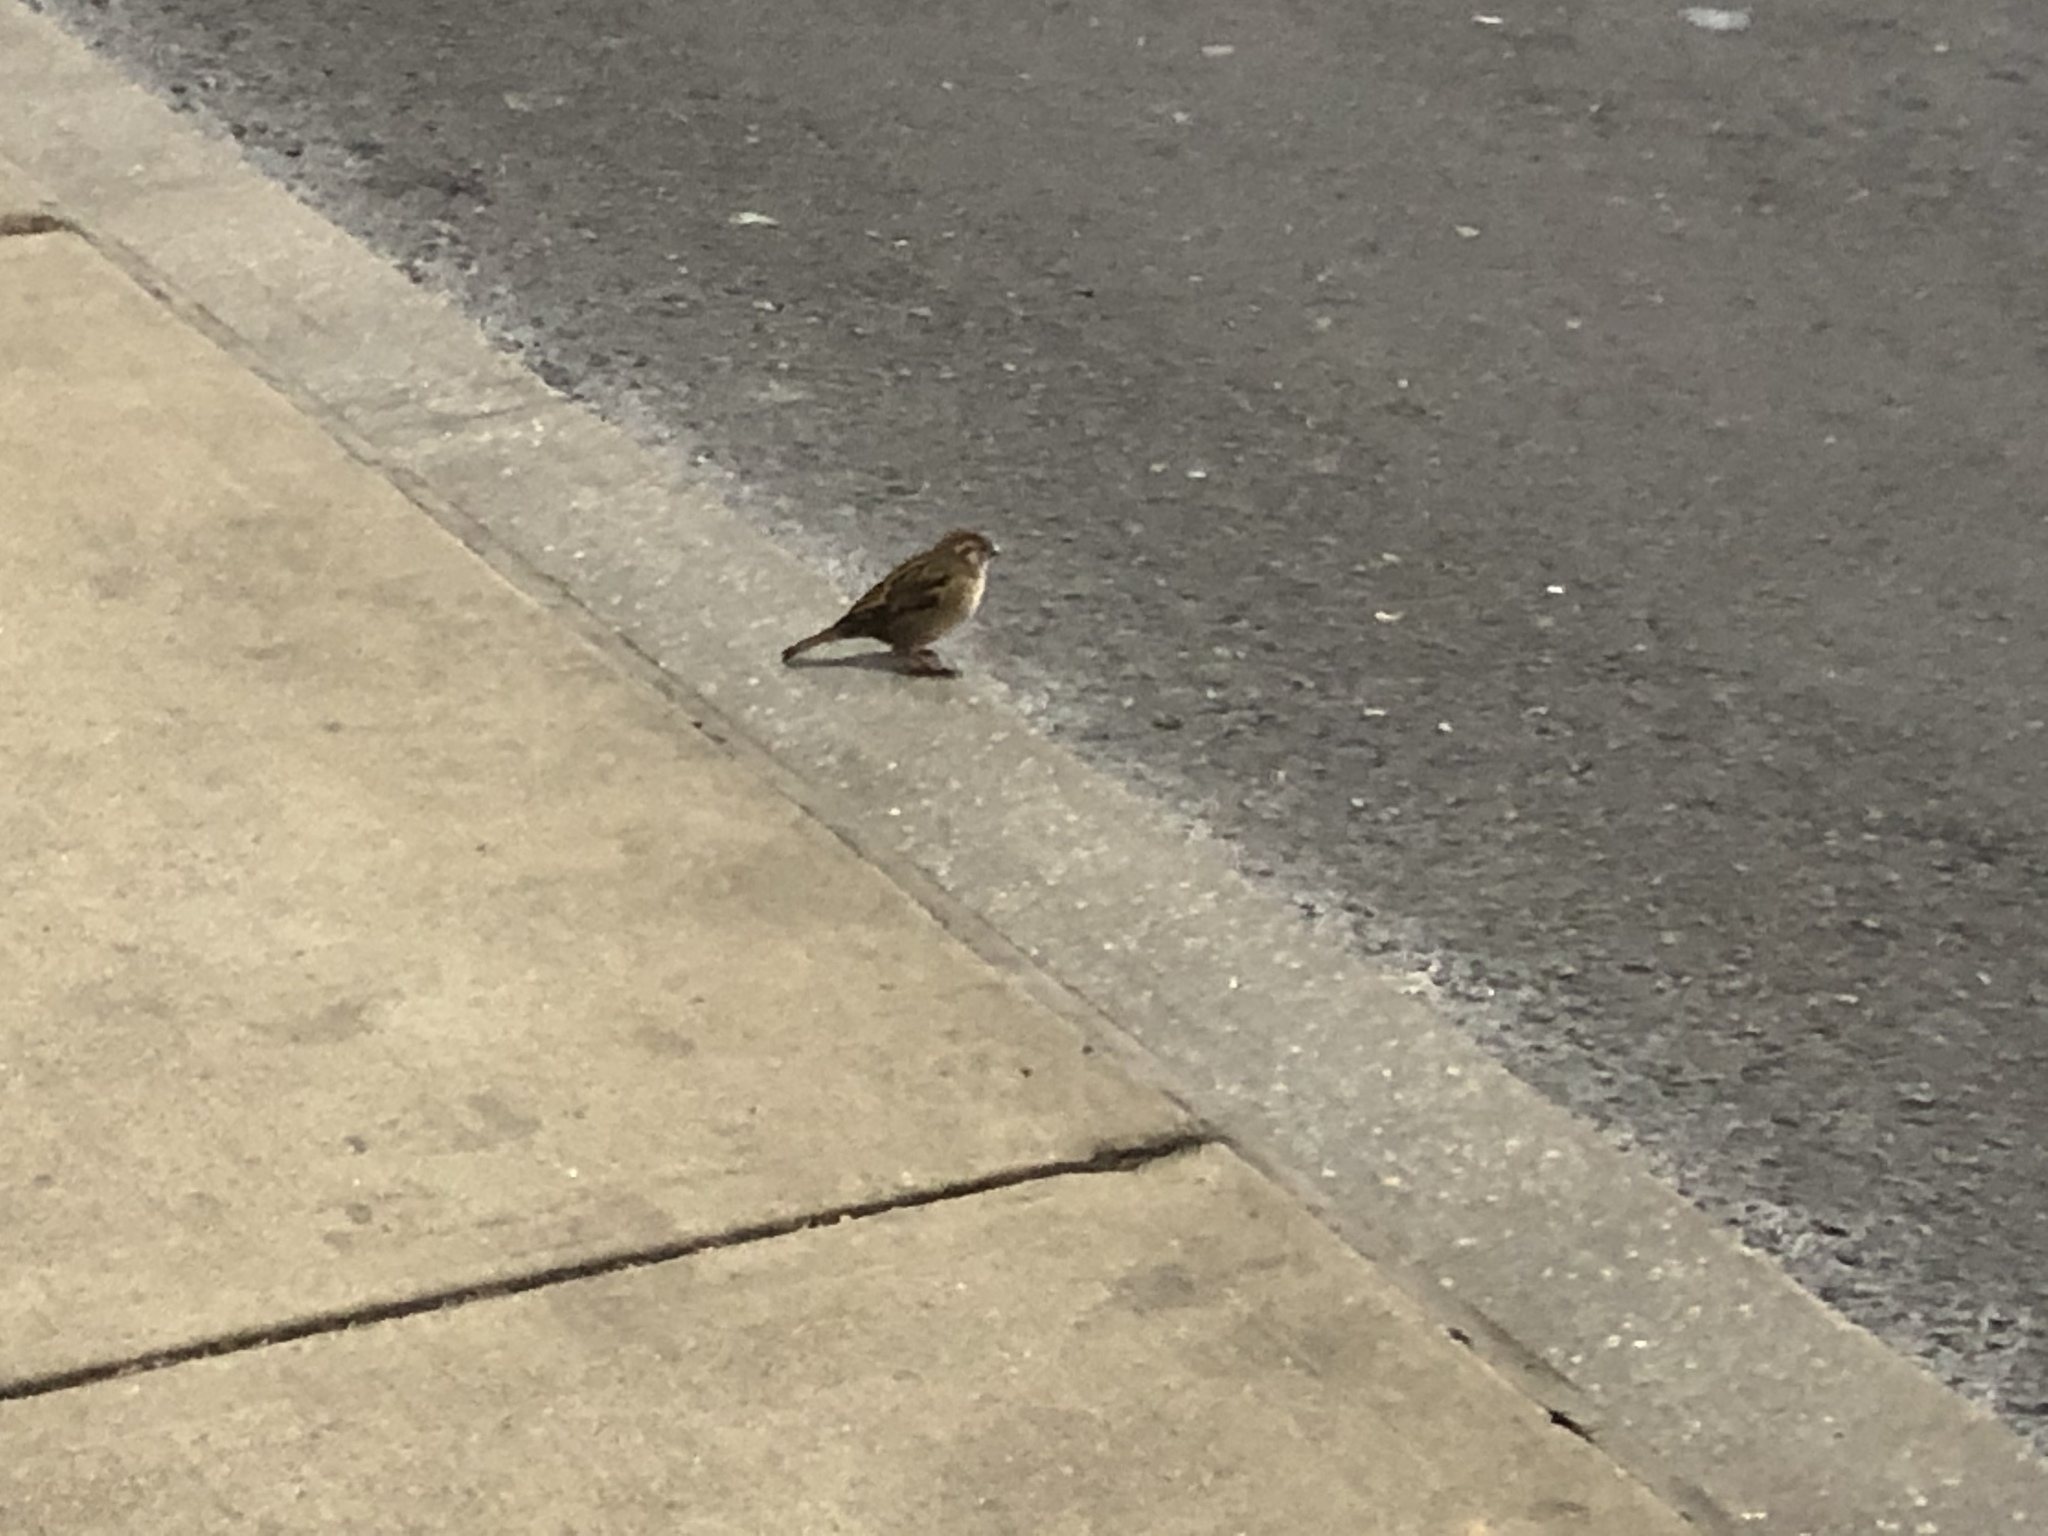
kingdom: Animalia
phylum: Chordata
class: Aves
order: Passeriformes
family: Passeridae
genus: Passer
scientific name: Passer domesticus
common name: House sparrow
